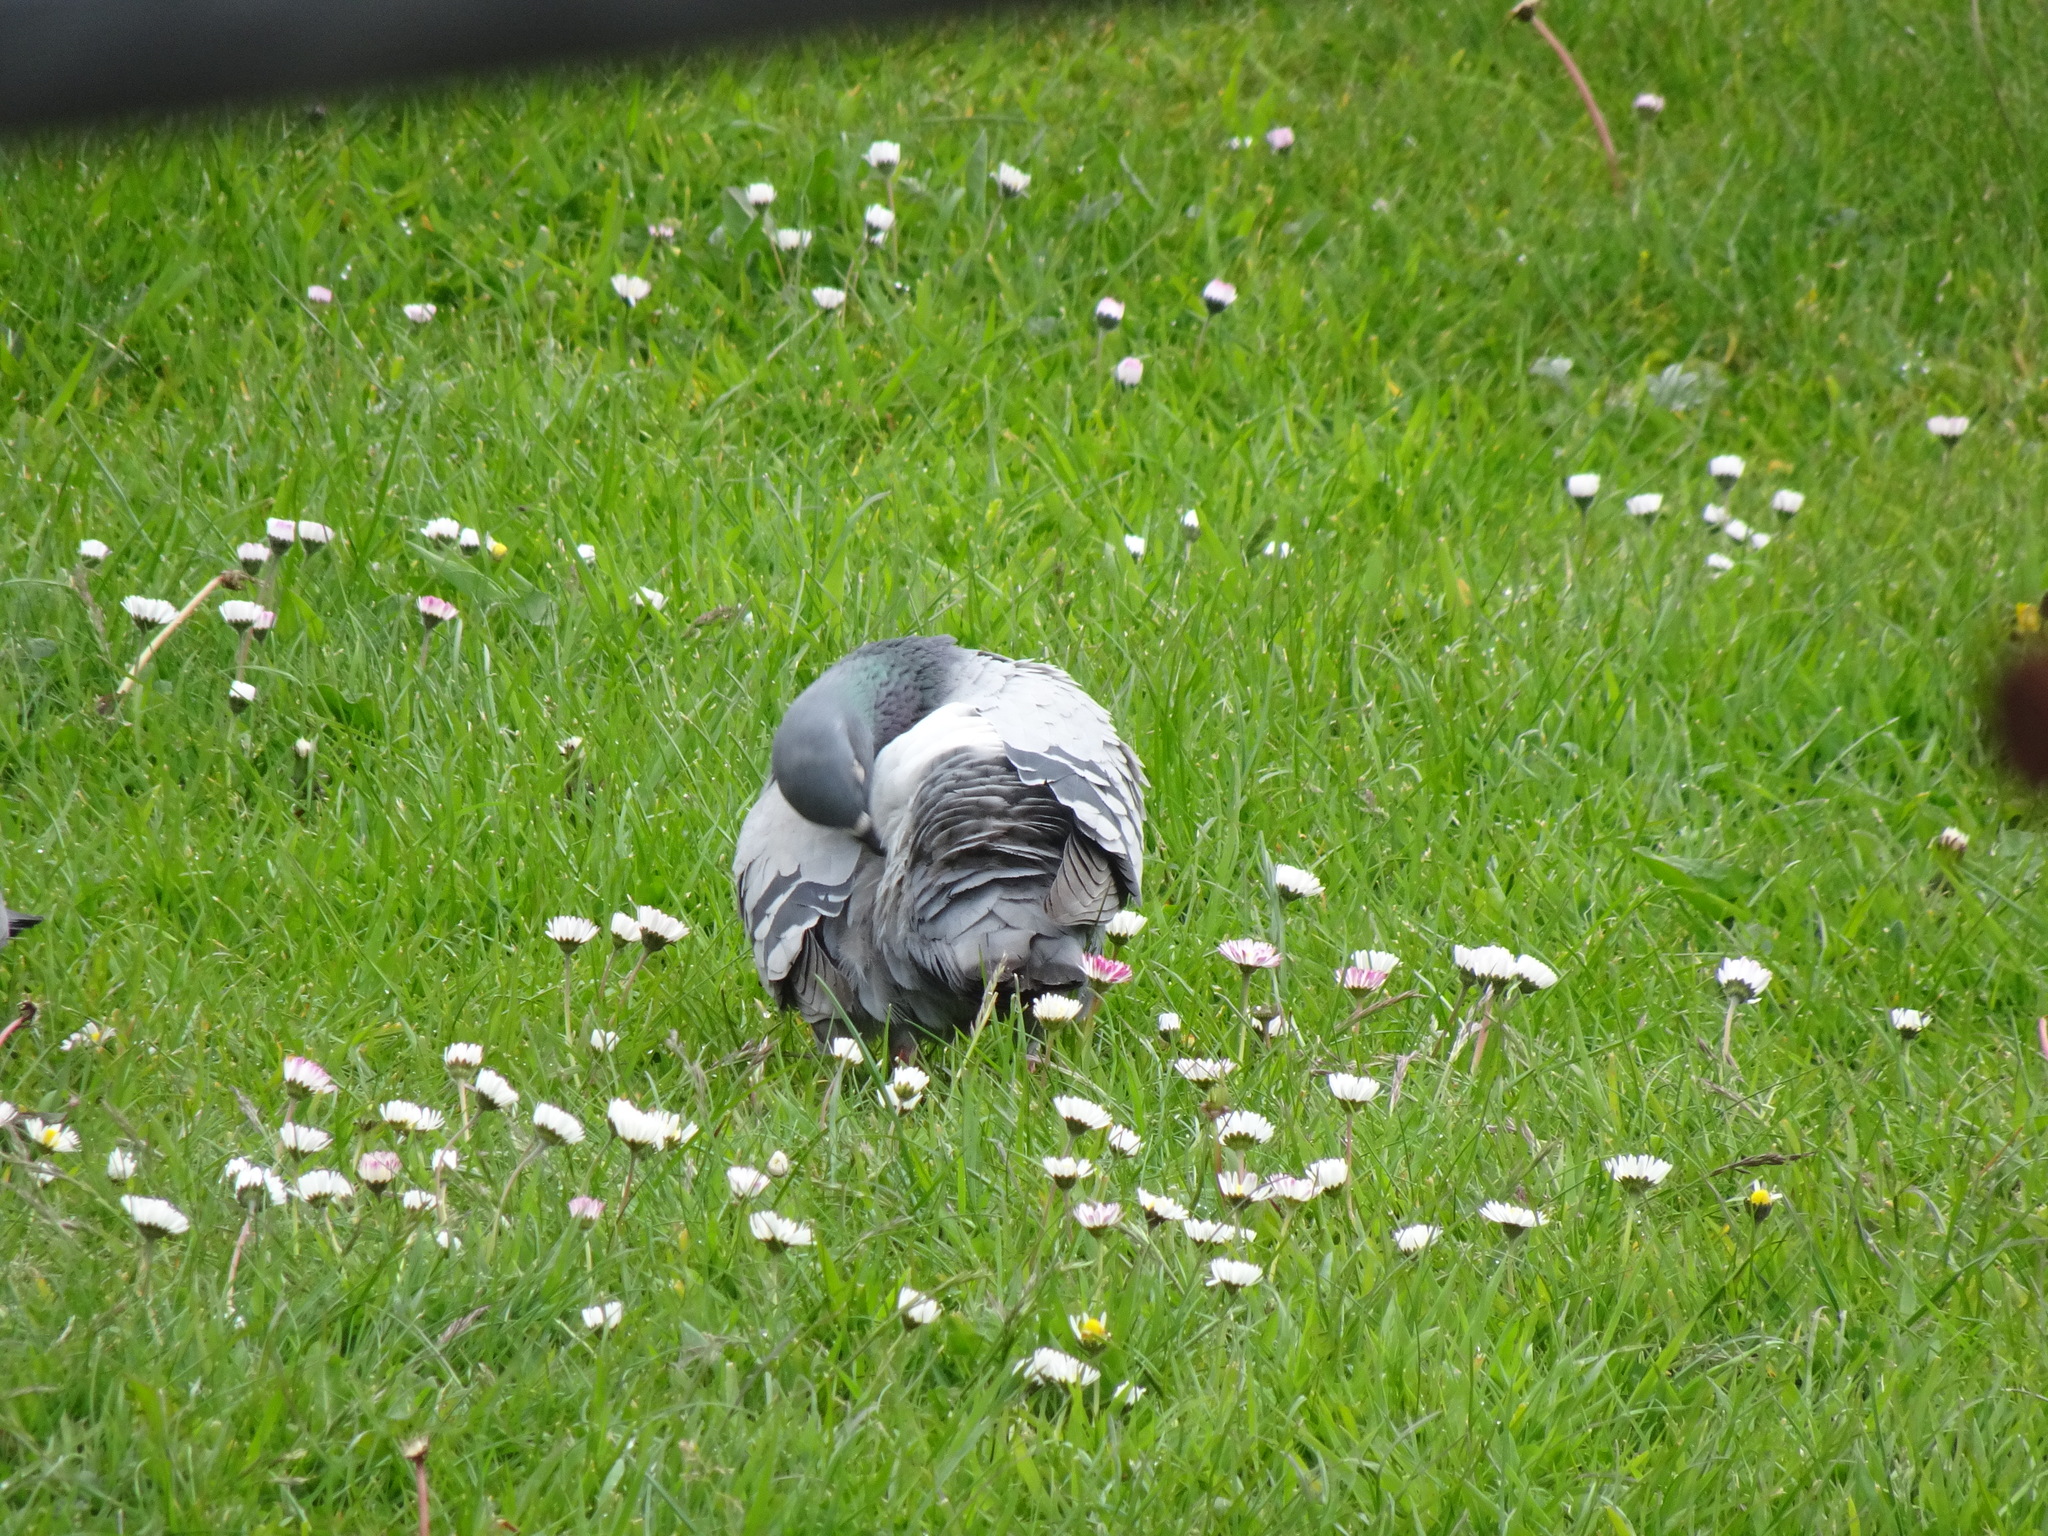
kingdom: Animalia
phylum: Chordata
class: Aves
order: Columbiformes
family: Columbidae
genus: Columba
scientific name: Columba livia
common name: Rock pigeon
